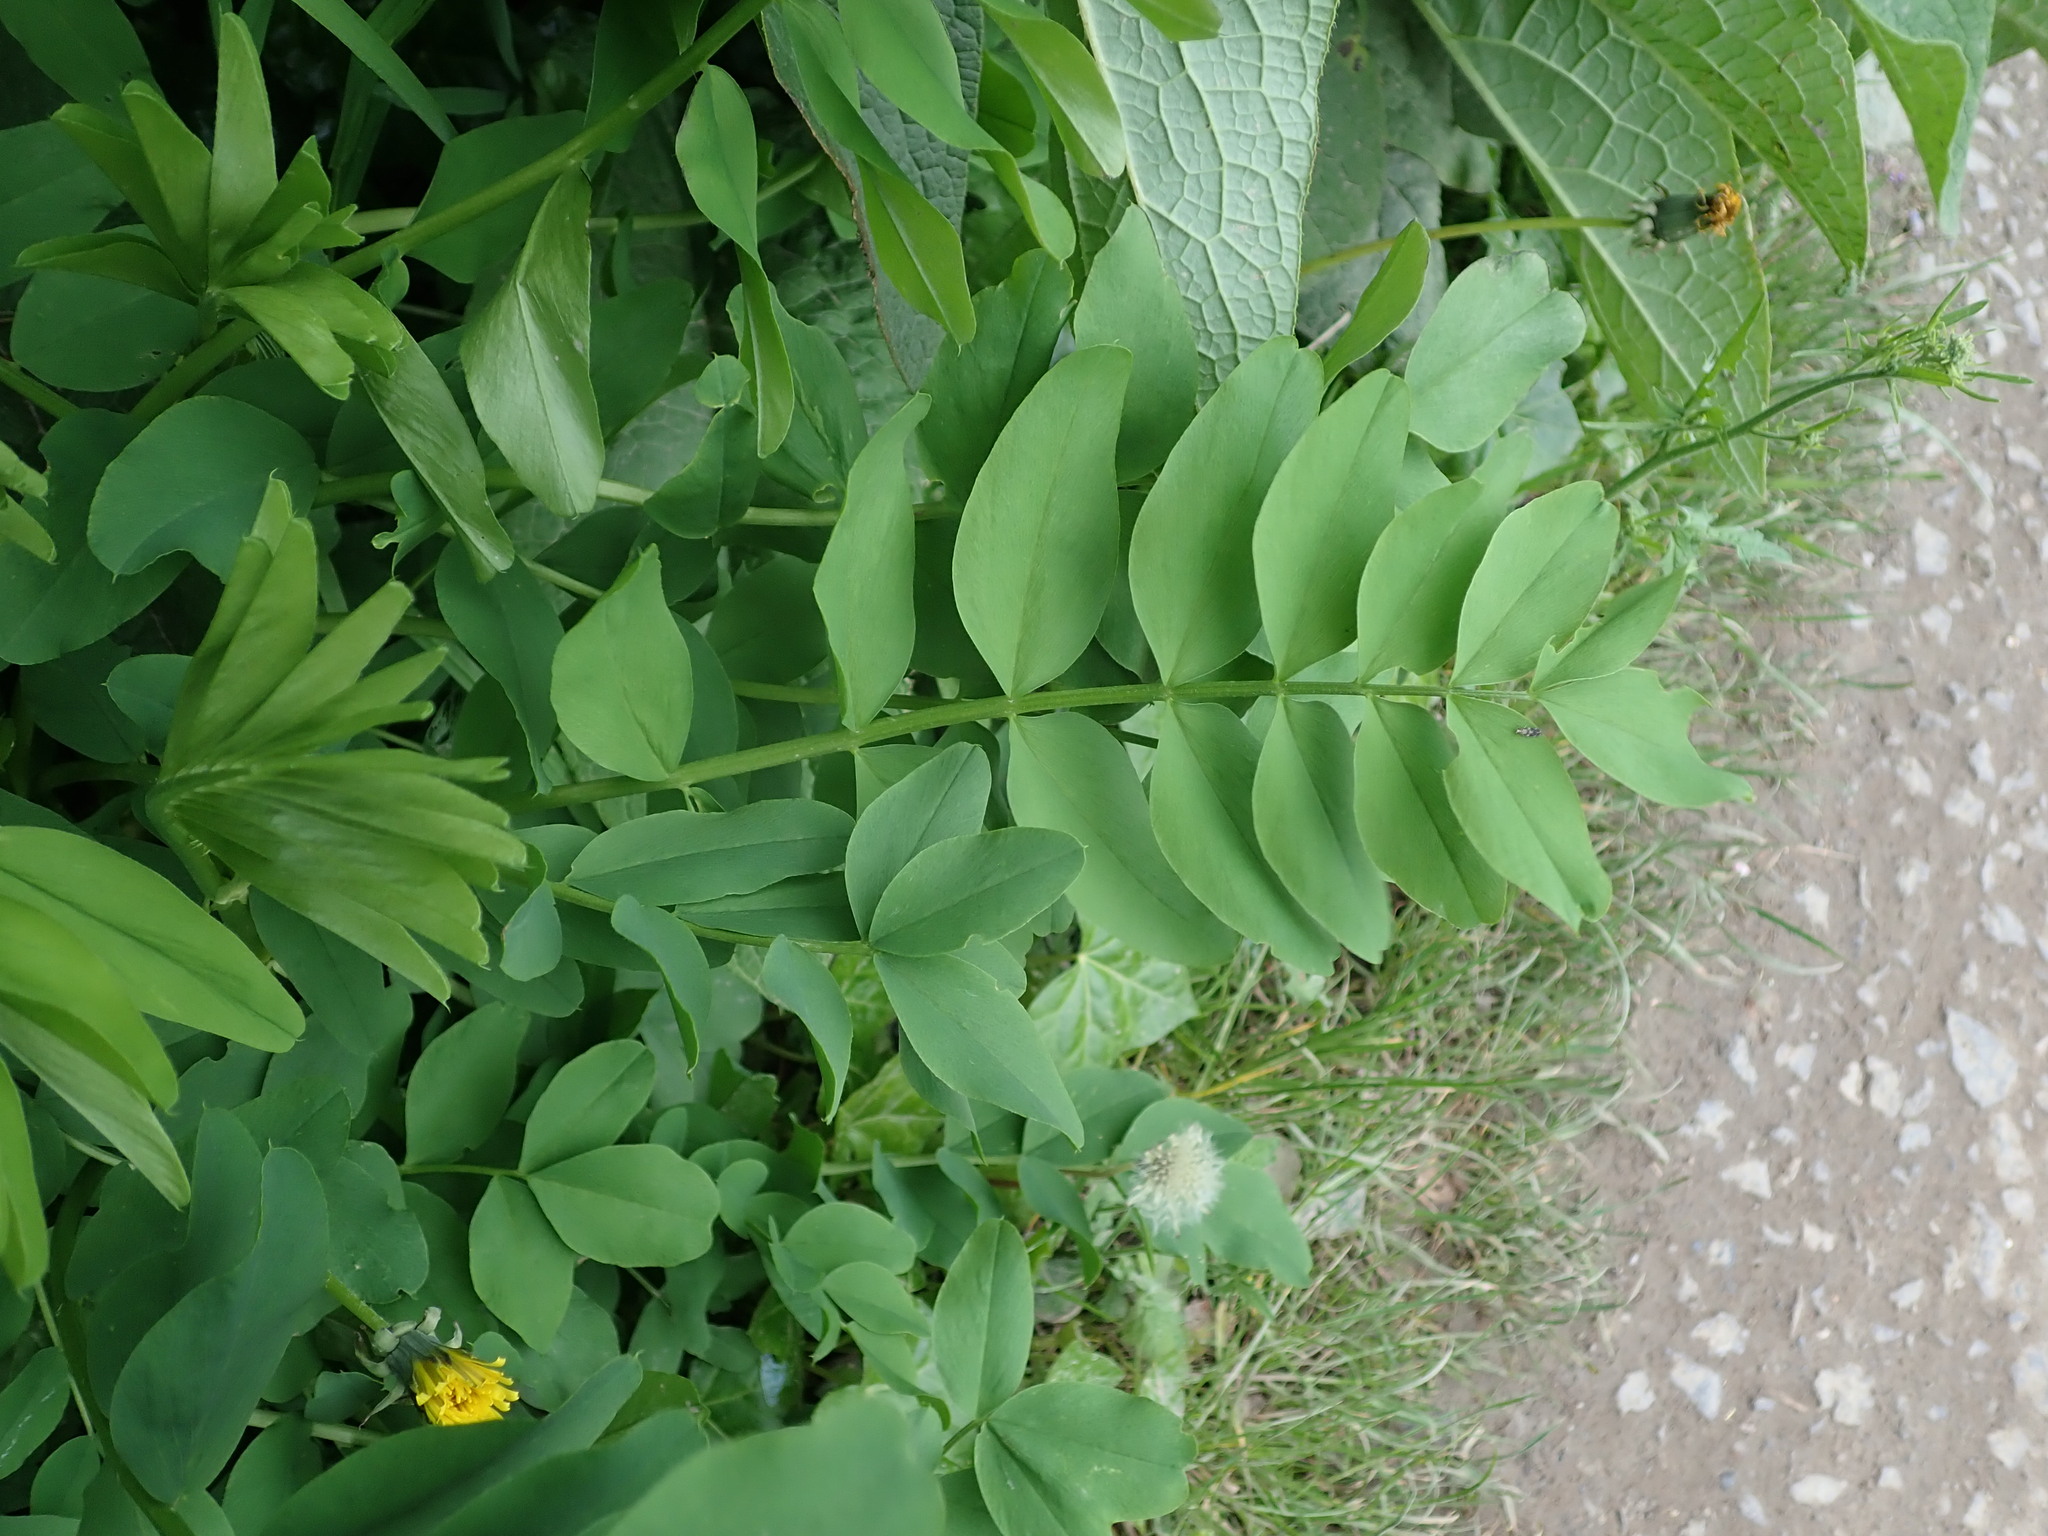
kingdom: Plantae
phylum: Tracheophyta
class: Magnoliopsida
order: Fabales
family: Fabaceae
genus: Galega
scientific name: Galega officinalis
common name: Goat's-rue
